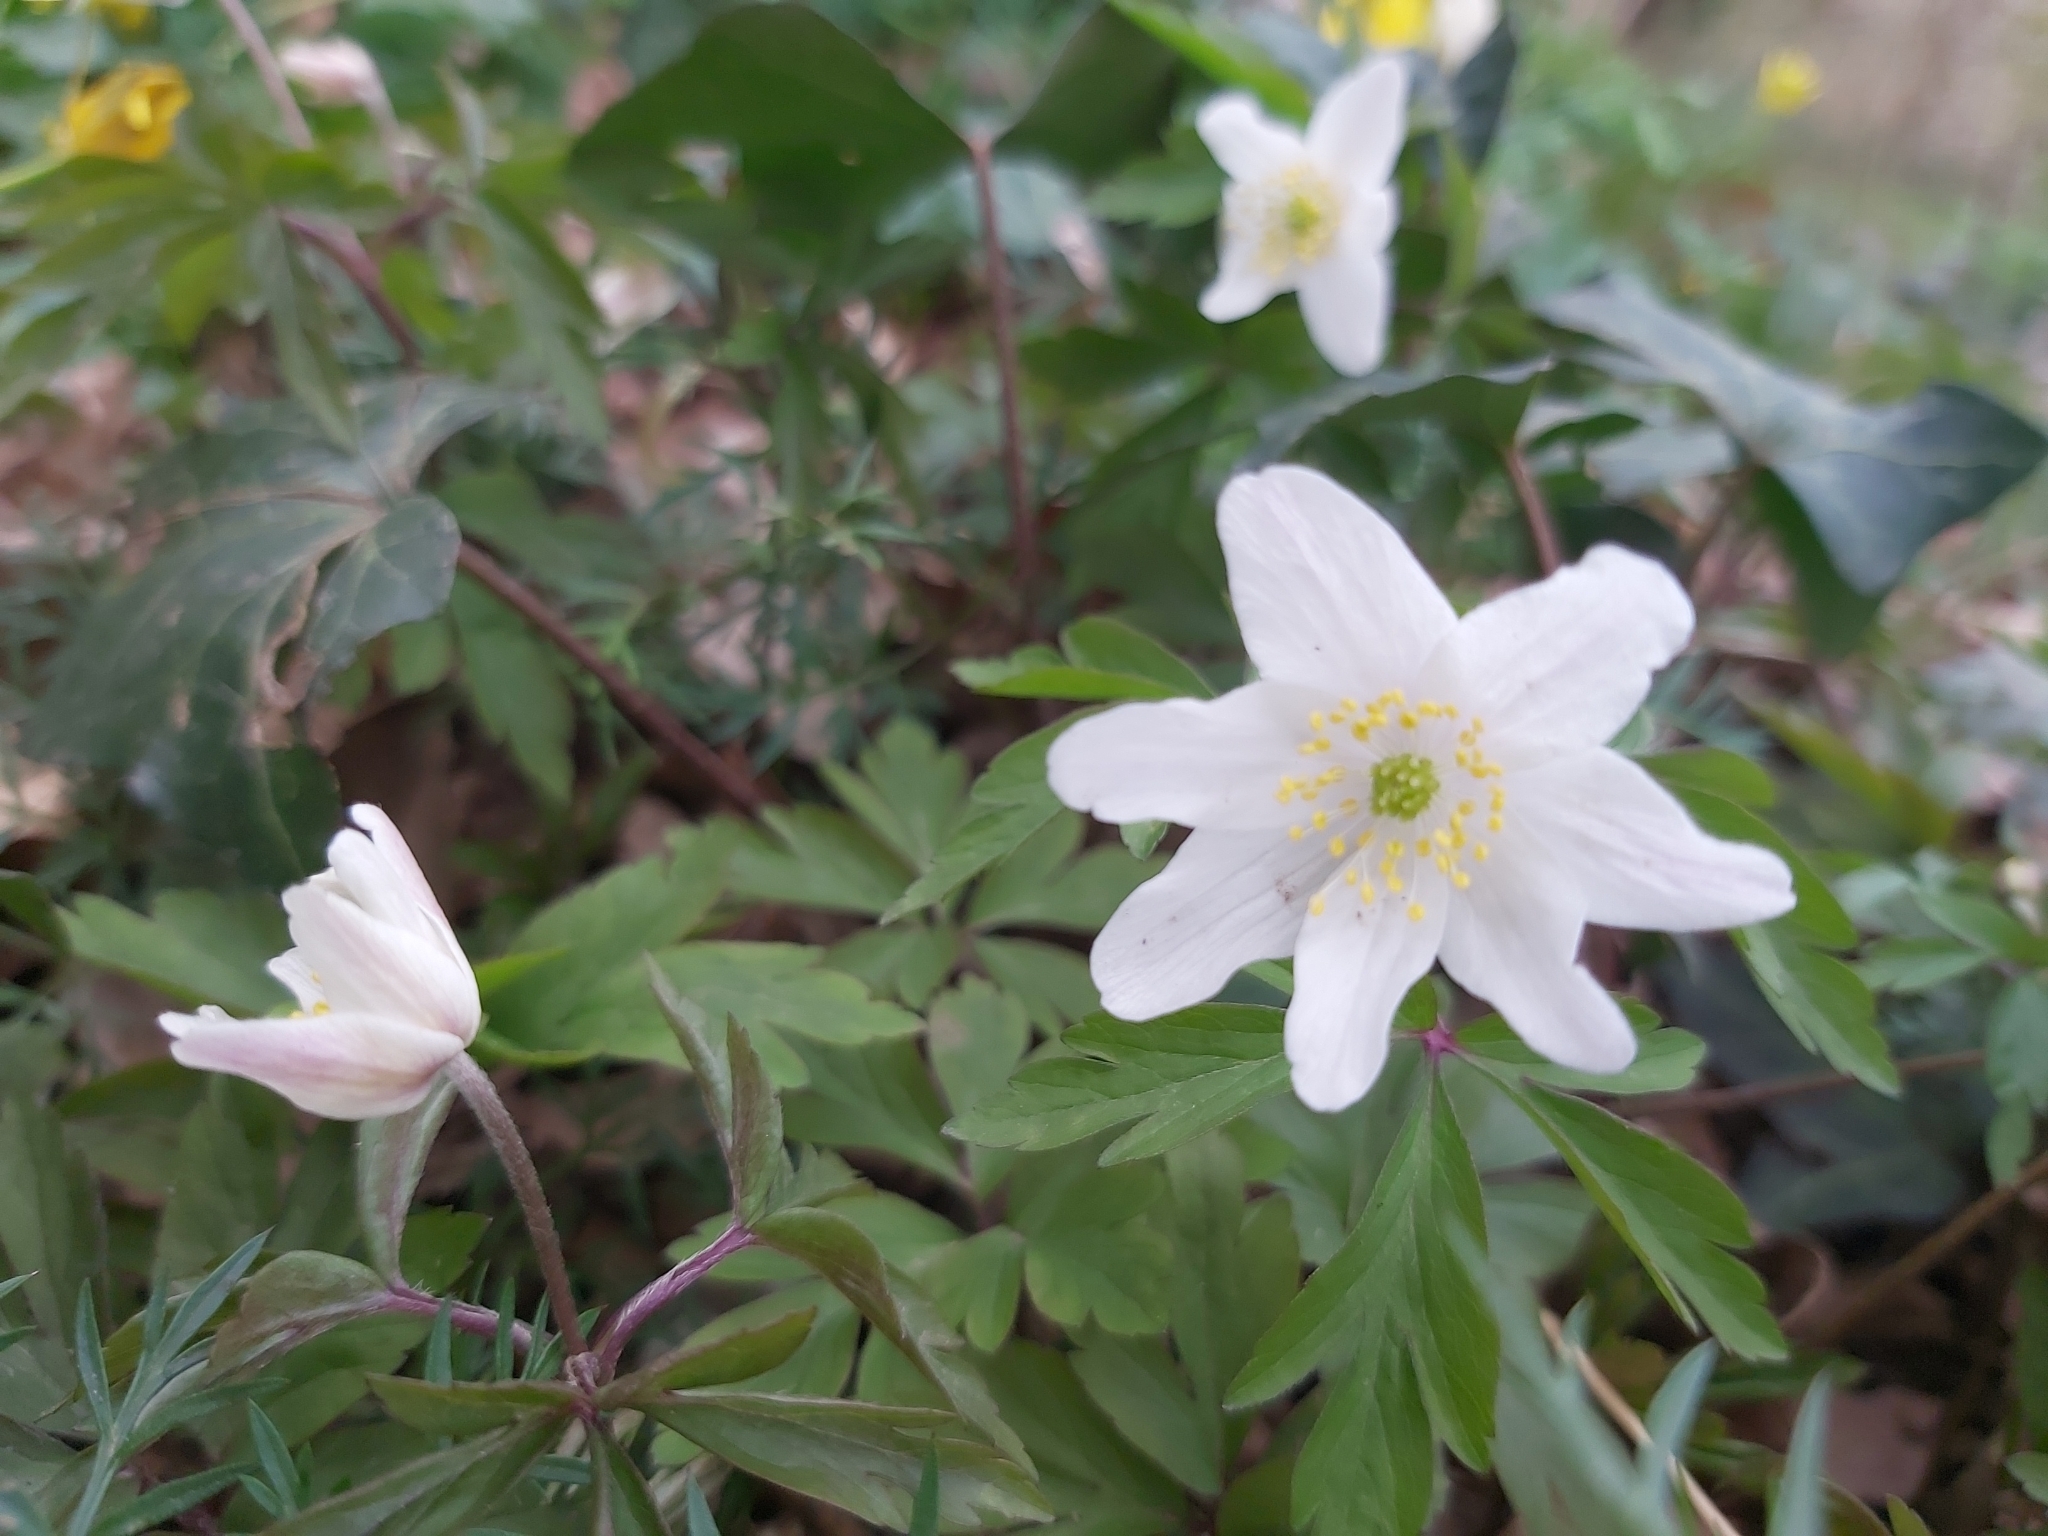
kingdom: Plantae
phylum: Tracheophyta
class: Magnoliopsida
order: Ranunculales
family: Ranunculaceae
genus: Anemone
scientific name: Anemone nemorosa
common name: Wood anemone
